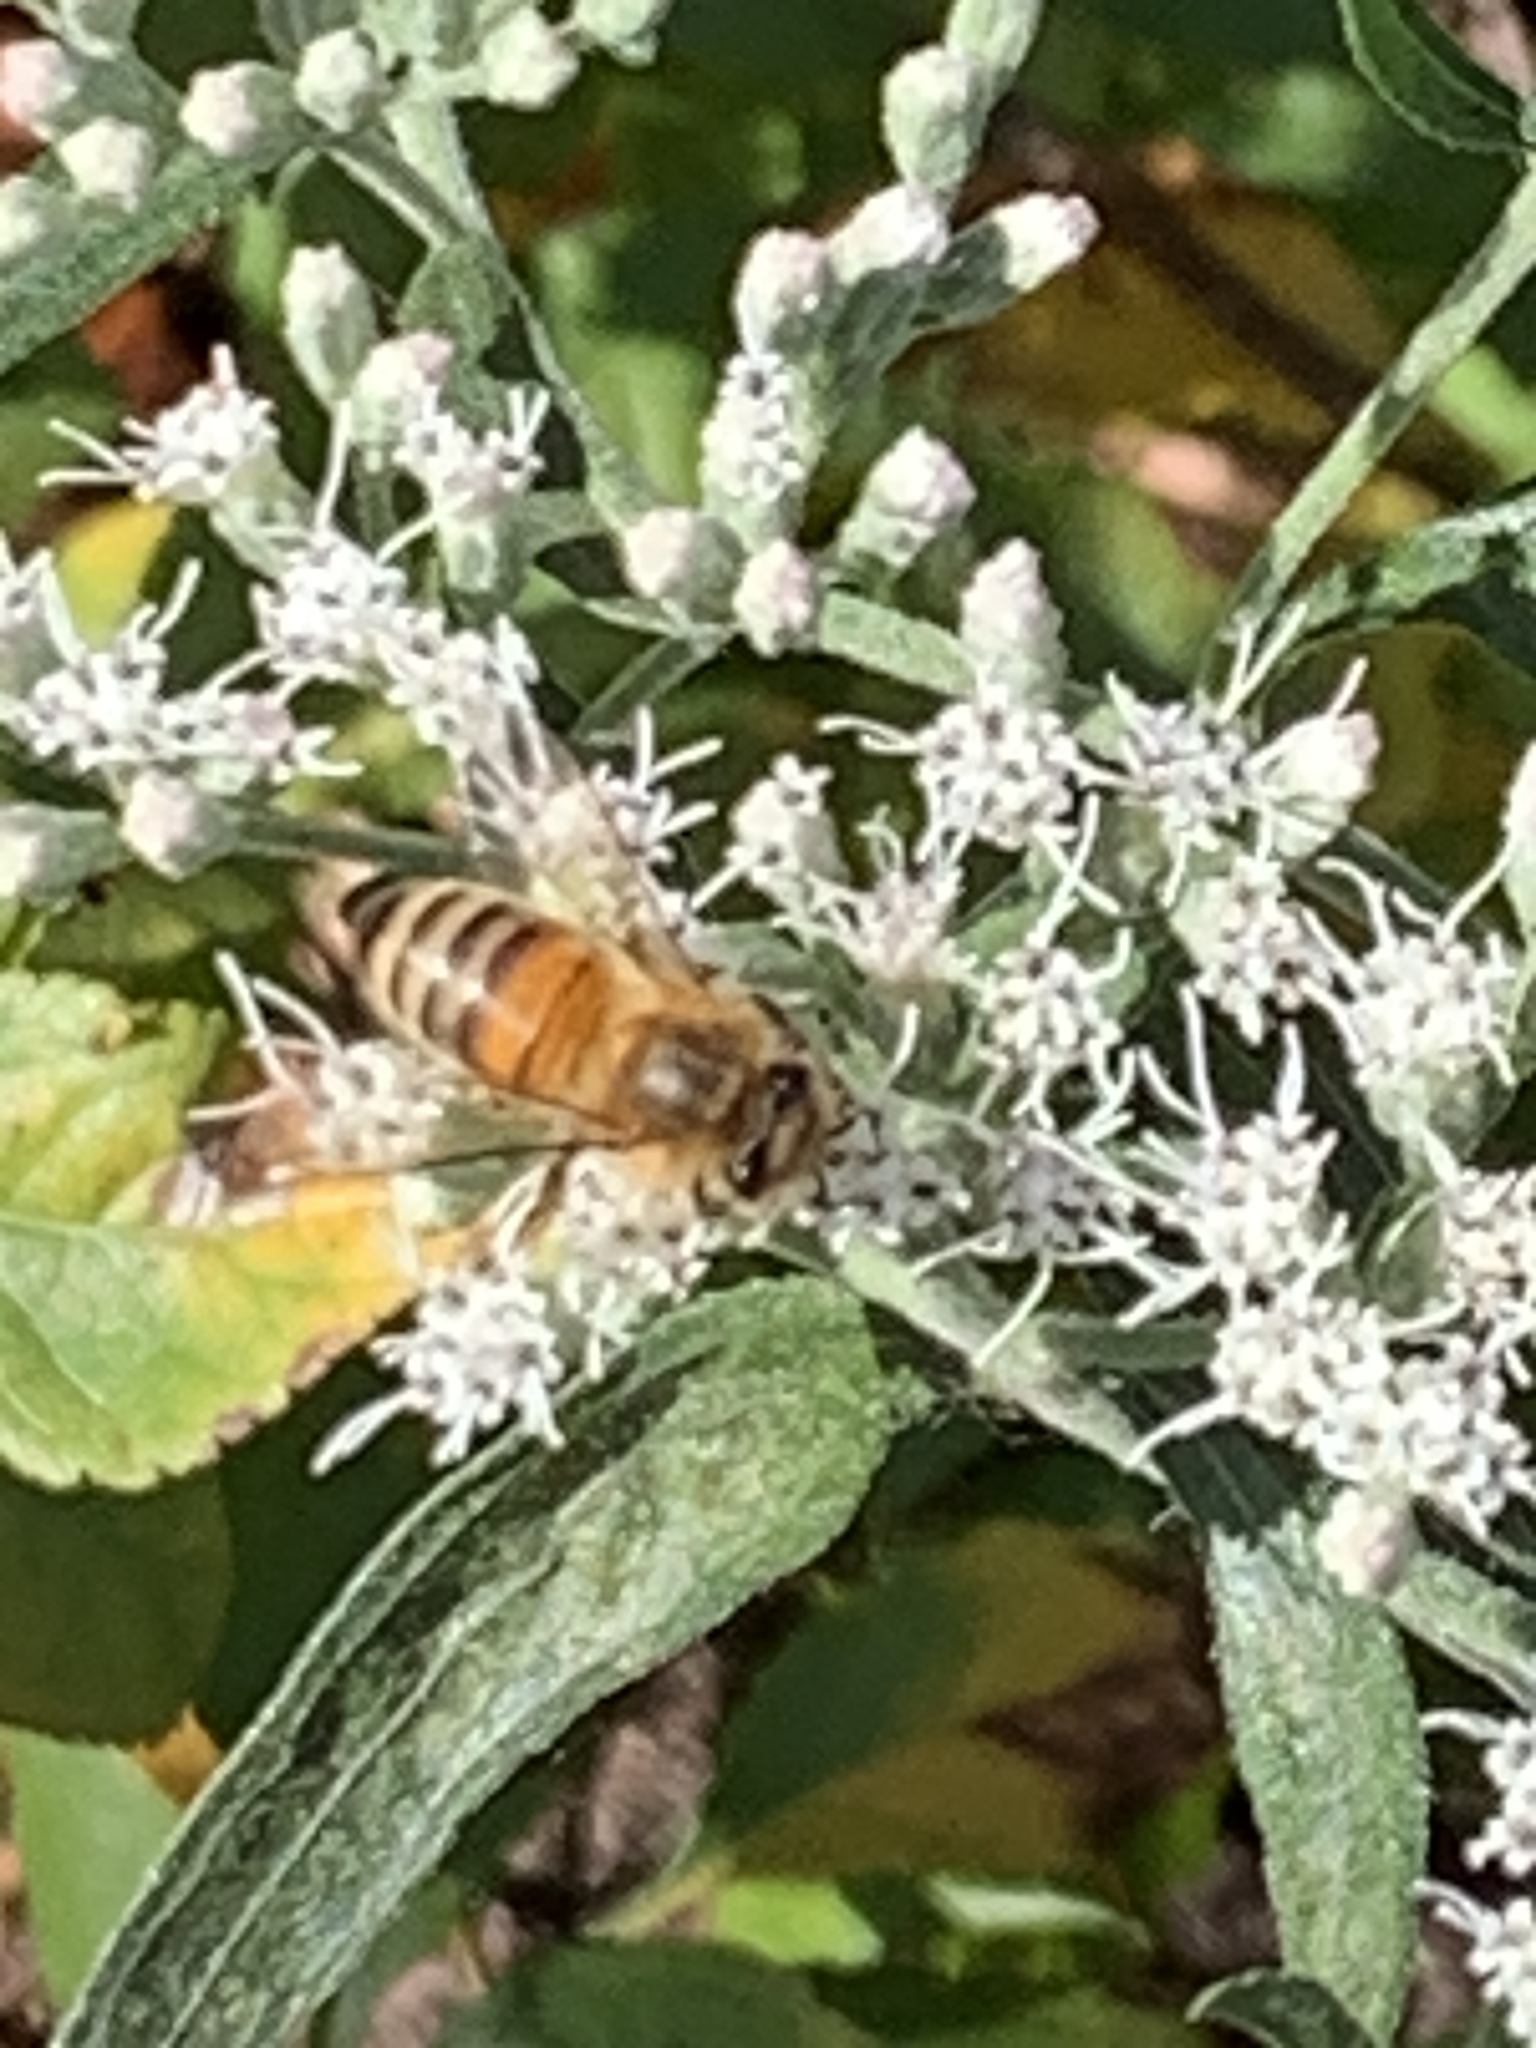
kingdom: Animalia
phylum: Arthropoda
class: Insecta
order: Hymenoptera
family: Apidae
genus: Apis
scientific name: Apis mellifera
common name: Honey bee
